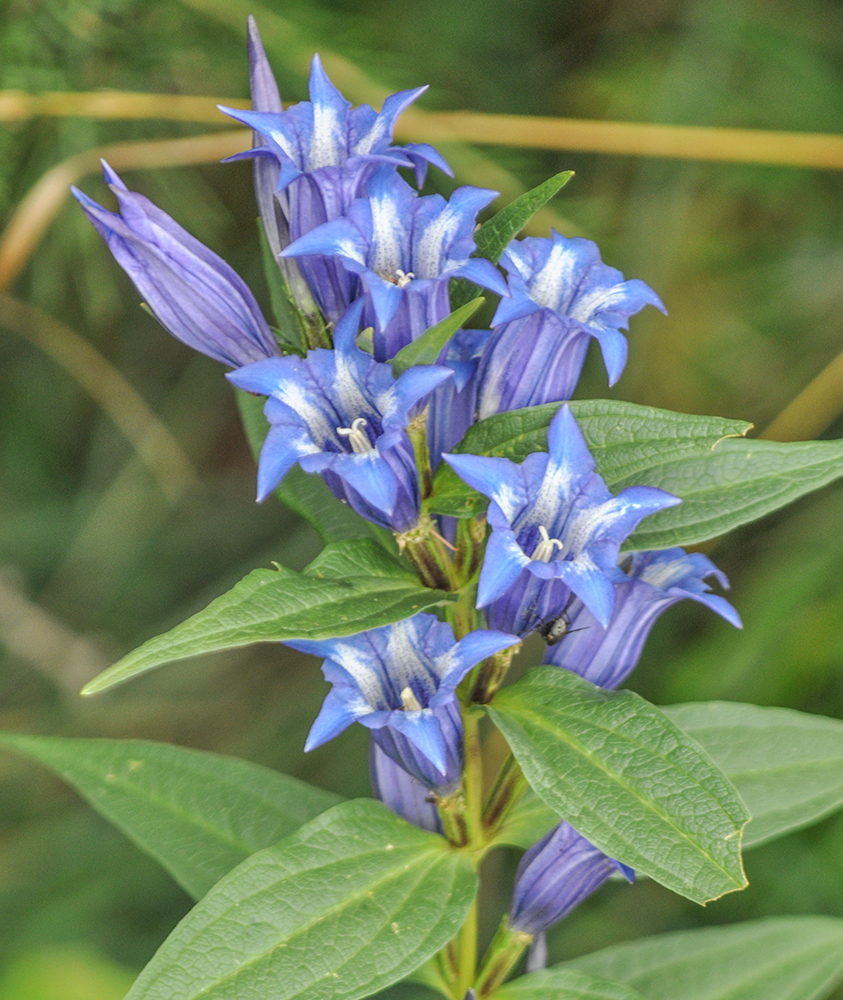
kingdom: Plantae
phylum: Tracheophyta
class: Magnoliopsida
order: Gentianales
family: Gentianaceae
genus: Gentiana
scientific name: Gentiana asclepiadea
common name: Willow gentian
